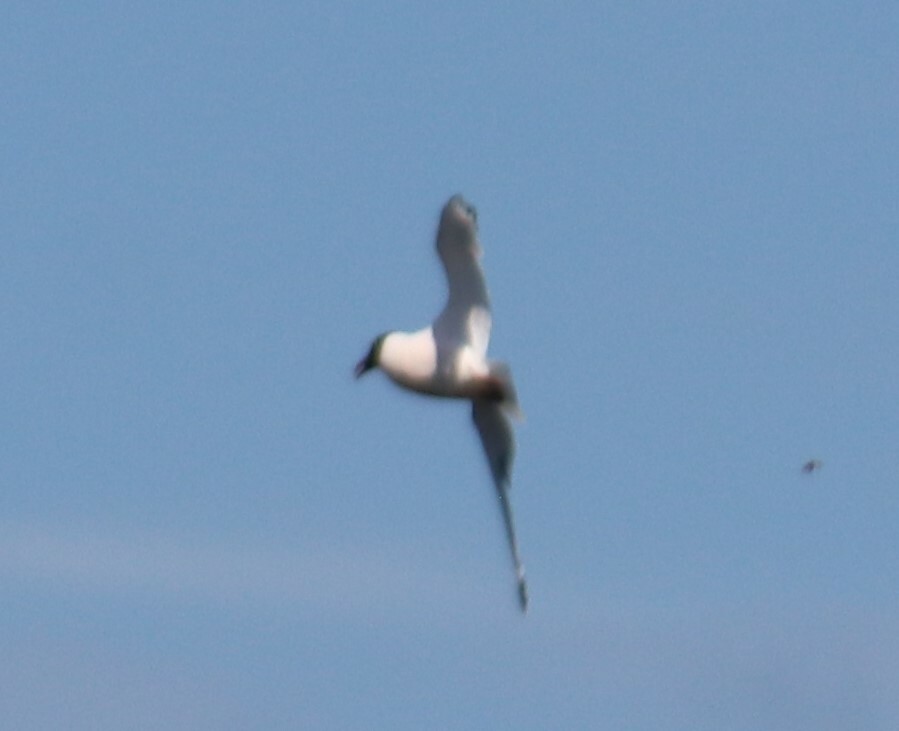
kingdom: Animalia
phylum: Chordata
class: Aves
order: Charadriiformes
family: Laridae
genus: Leucophaeus
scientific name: Leucophaeus pipixcan
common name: Franklin's gull
